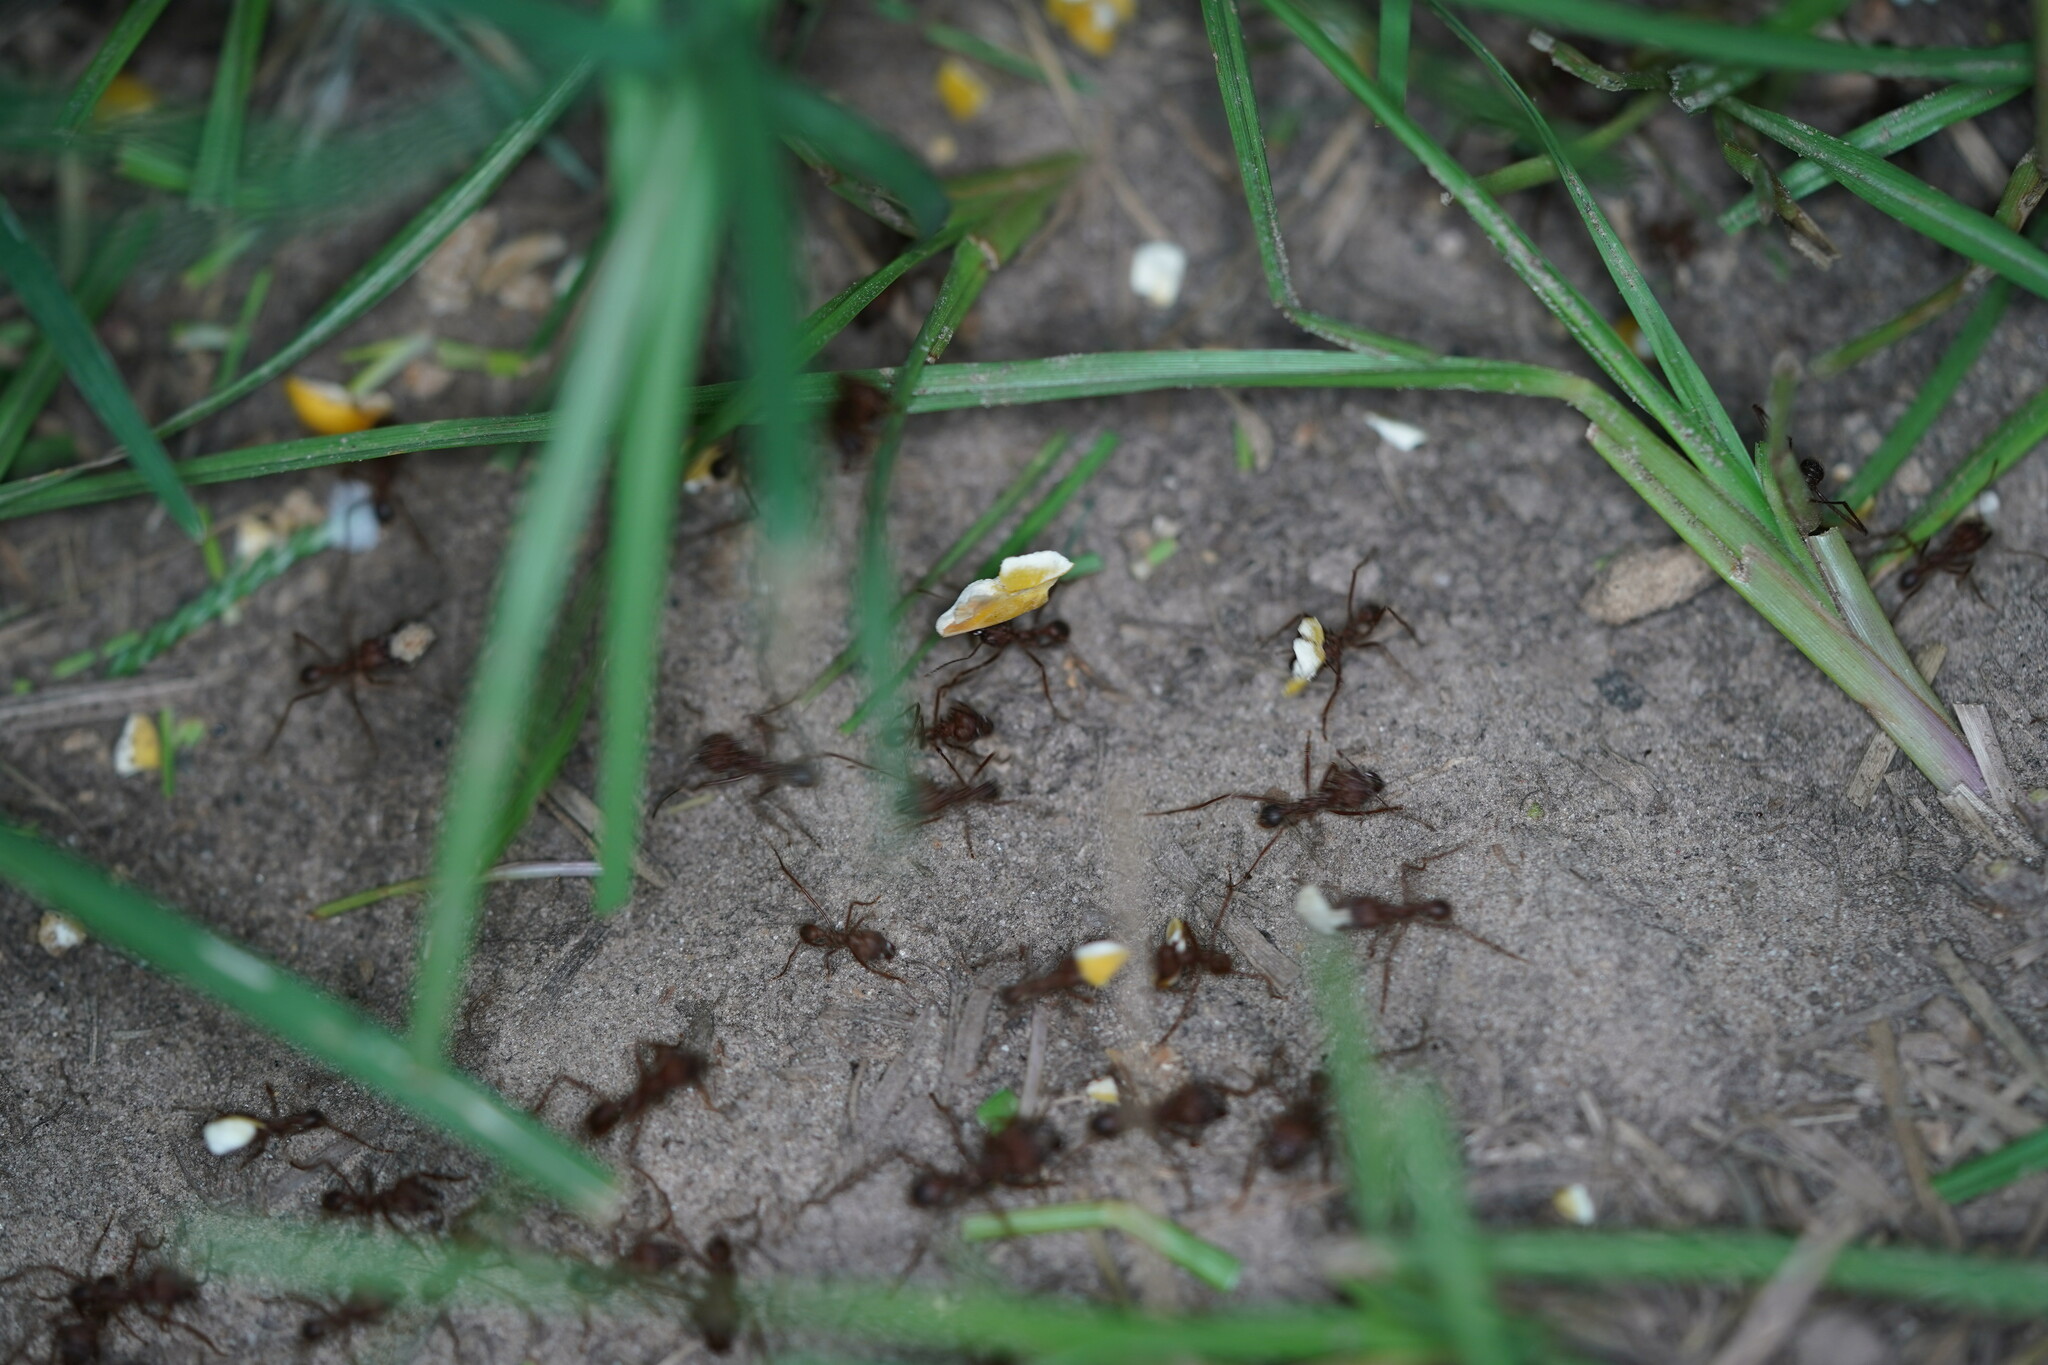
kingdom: Animalia
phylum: Arthropoda
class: Insecta
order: Hymenoptera
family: Formicidae
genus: Atta
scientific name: Atta texana
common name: Texas leafcutting ant
